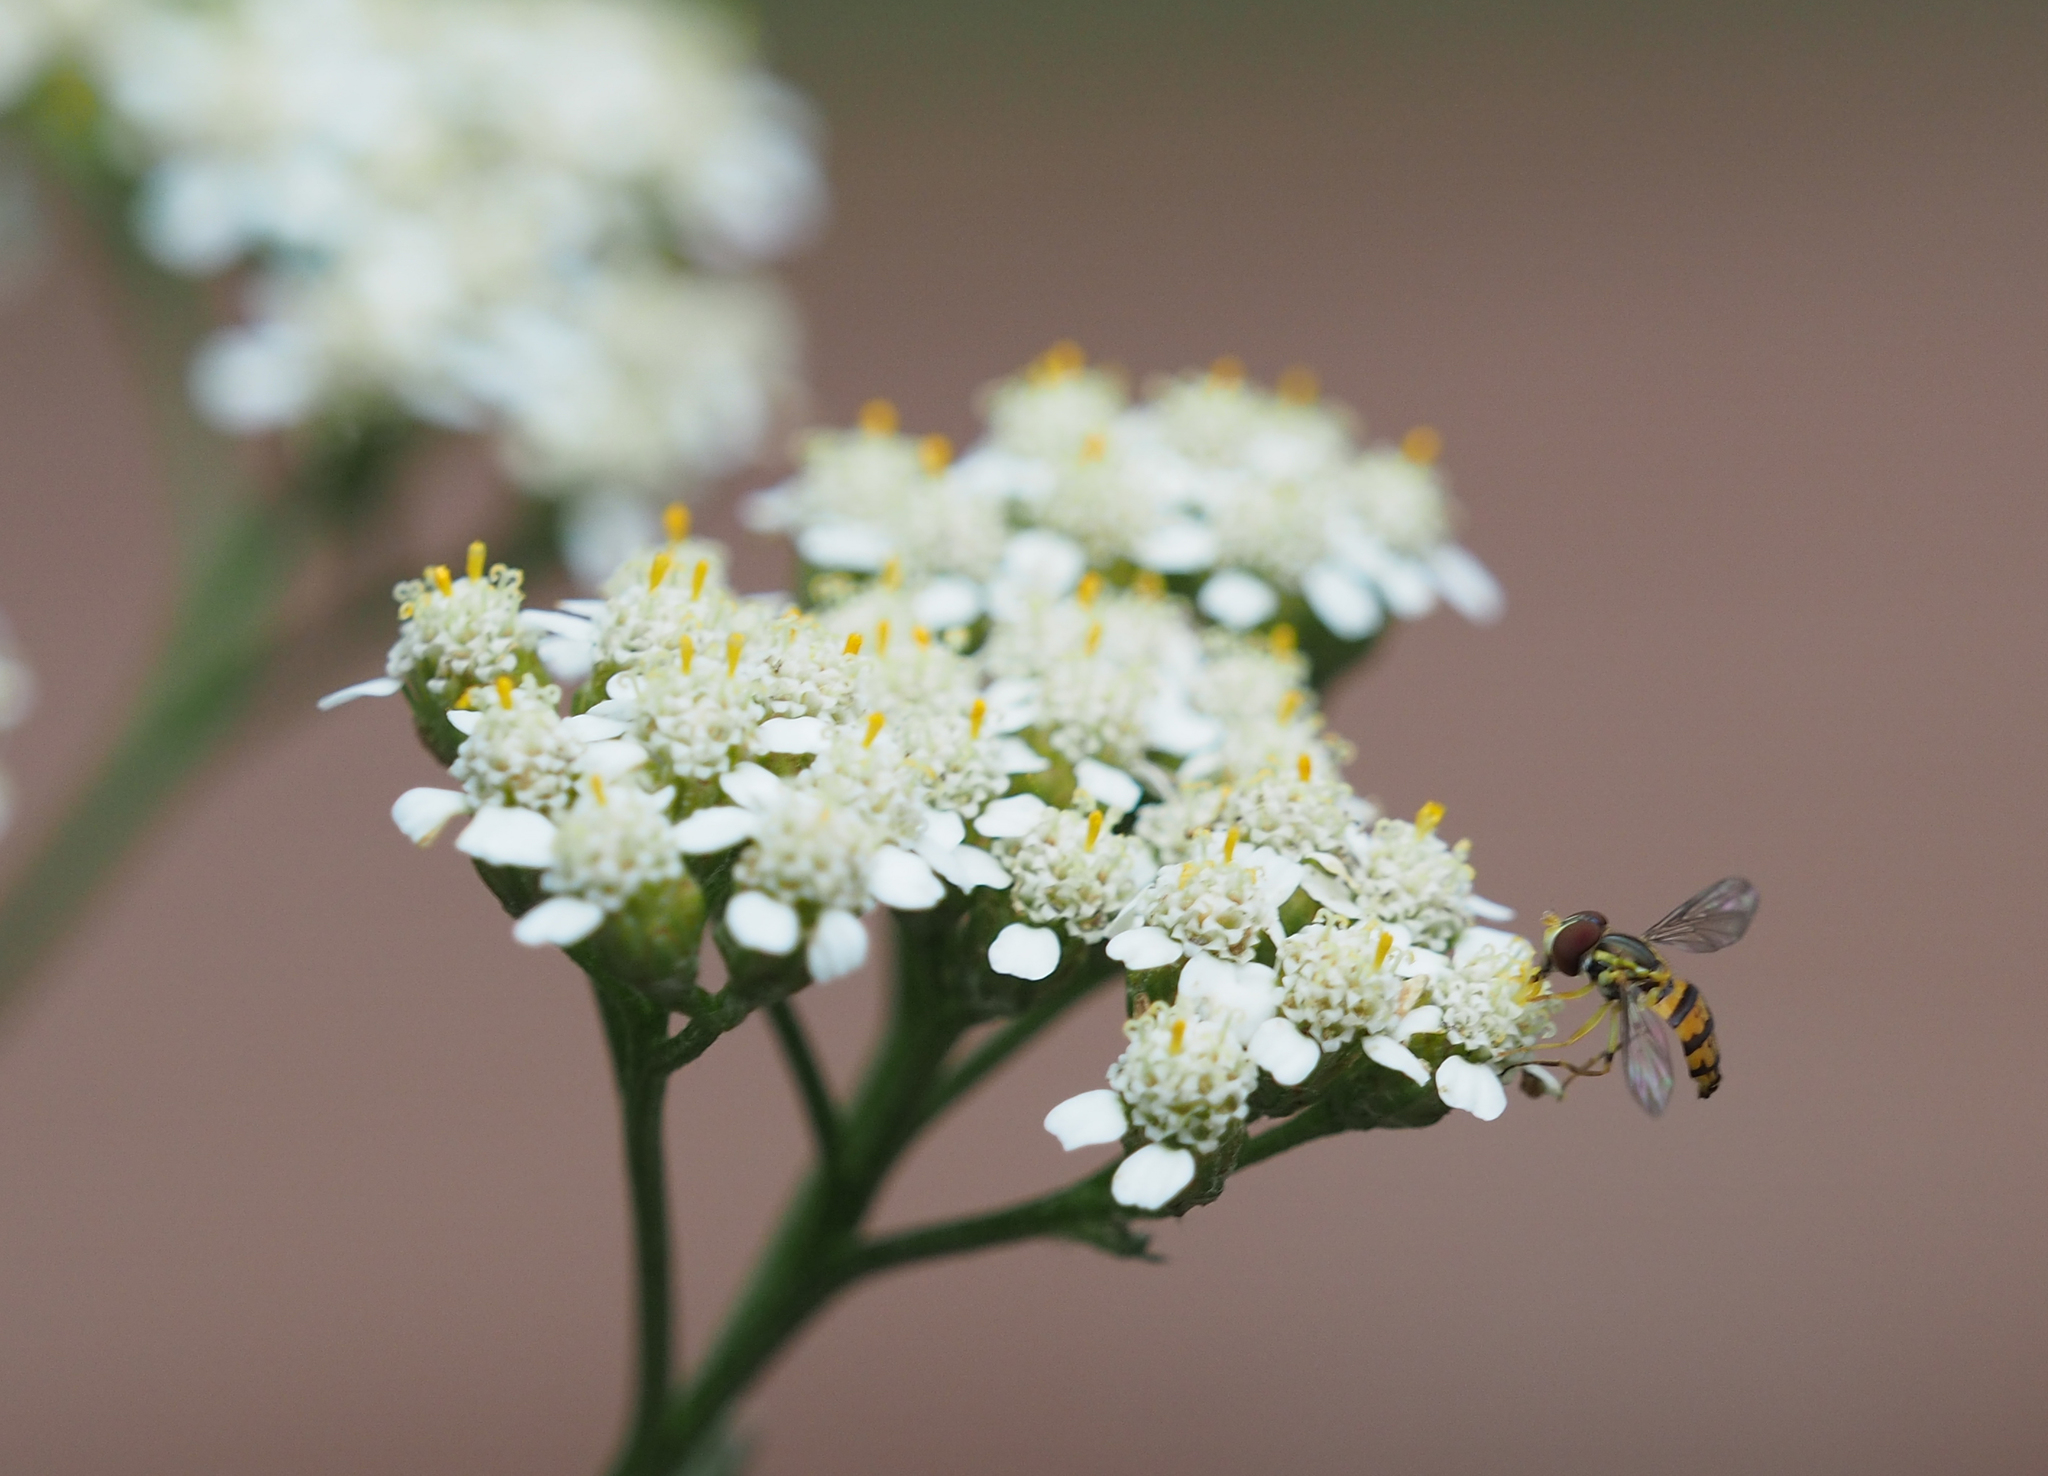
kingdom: Animalia
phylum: Arthropoda
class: Insecta
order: Diptera
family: Syrphidae
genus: Toxomerus
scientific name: Toxomerus geminatus
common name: Eastern calligrapher
